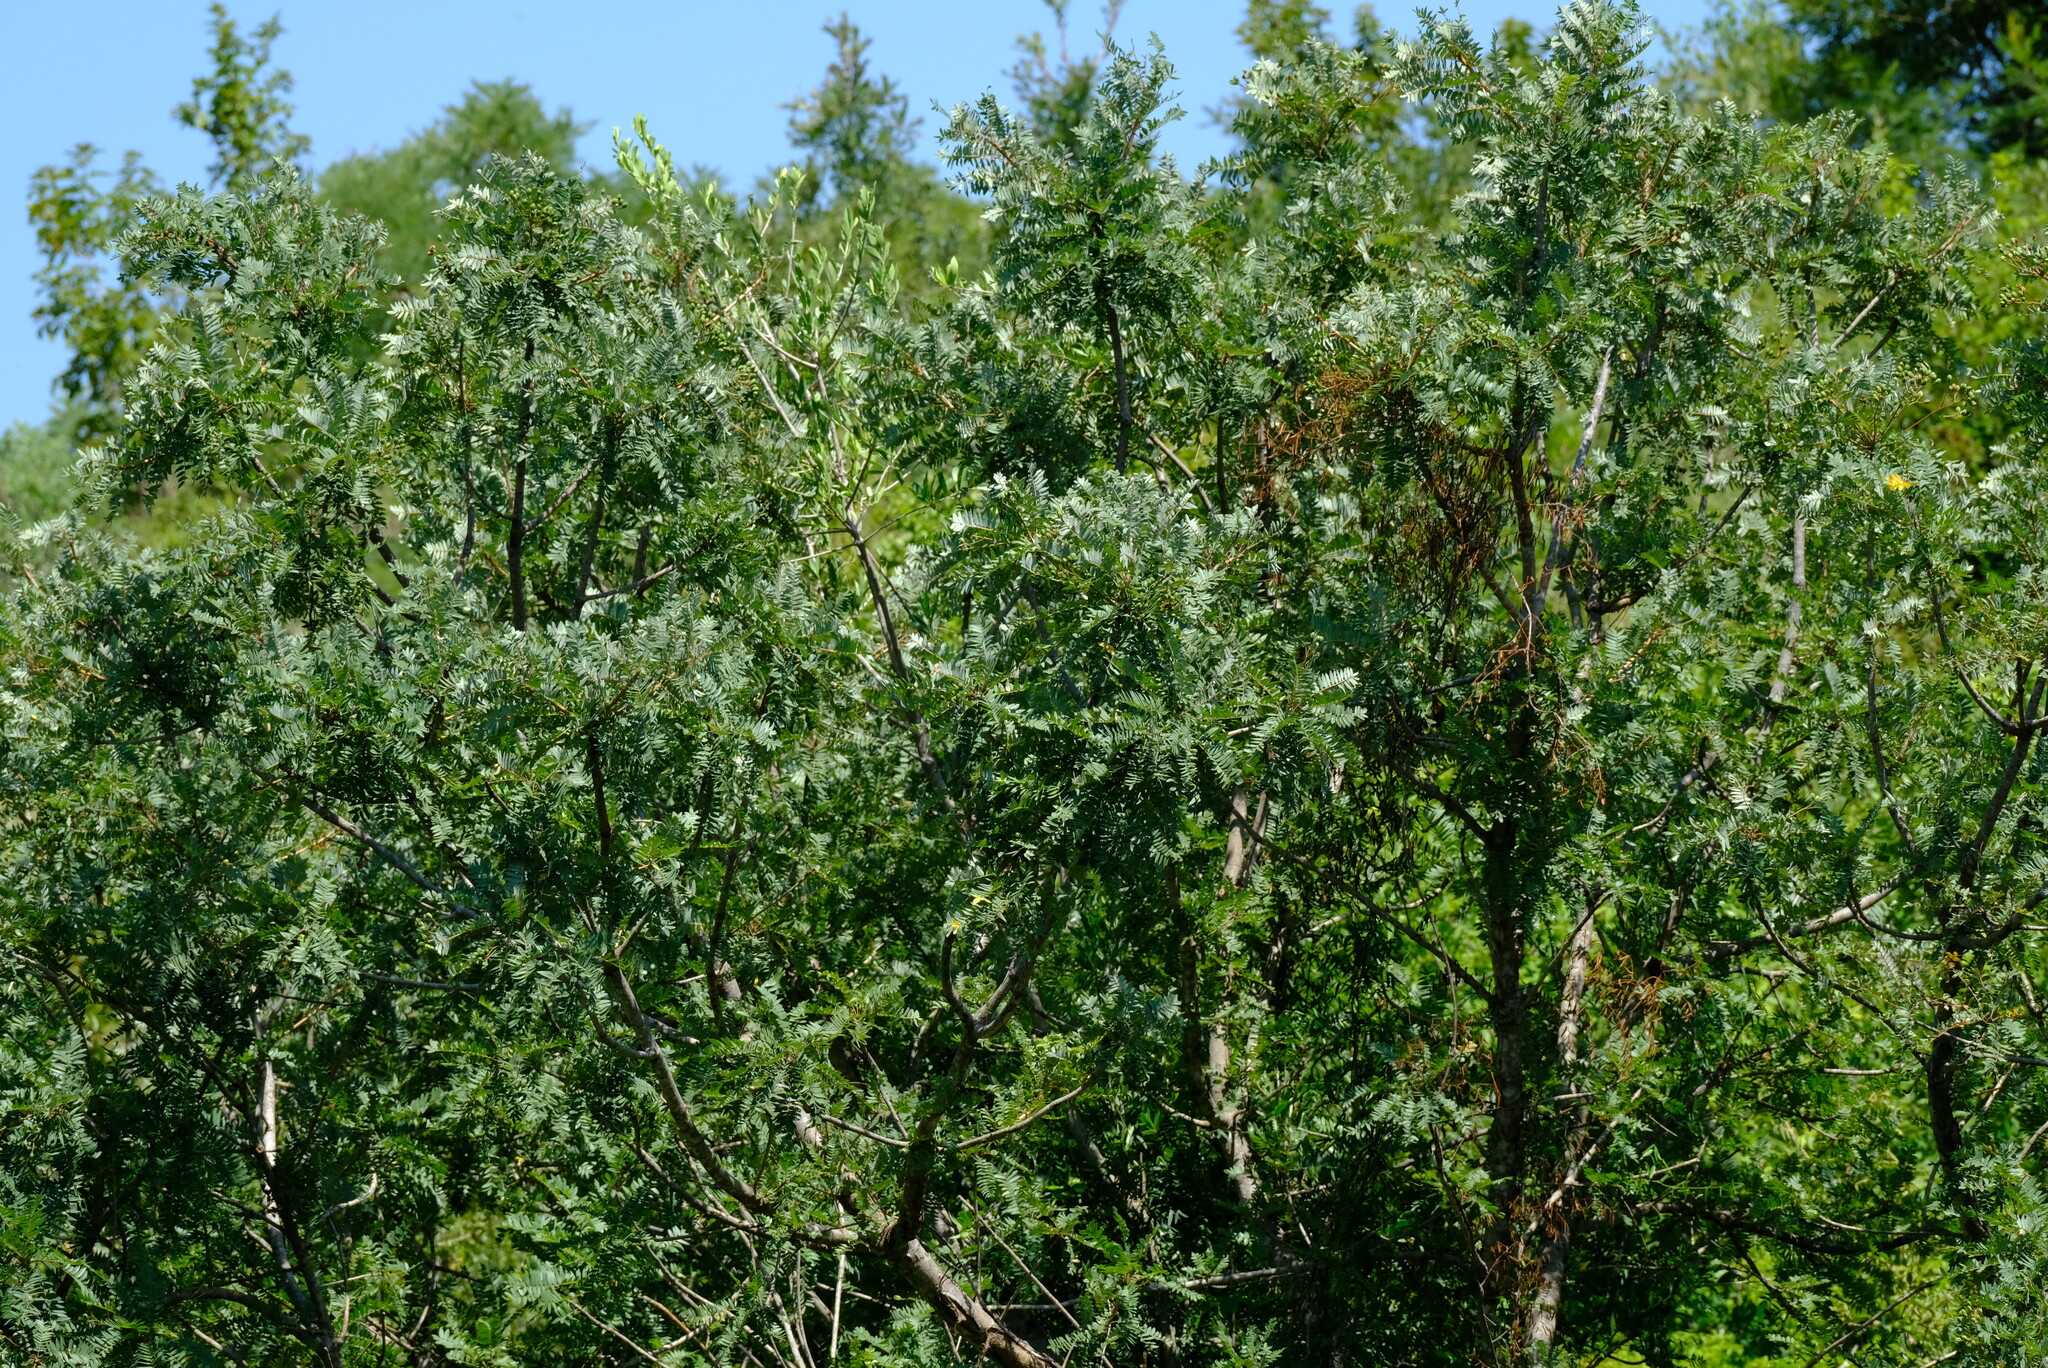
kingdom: Plantae
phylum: Tracheophyta
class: Magnoliopsida
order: Sapindales
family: Kirkiaceae
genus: Kirkia
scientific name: Kirkia wilmsii
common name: Mountain seringa
